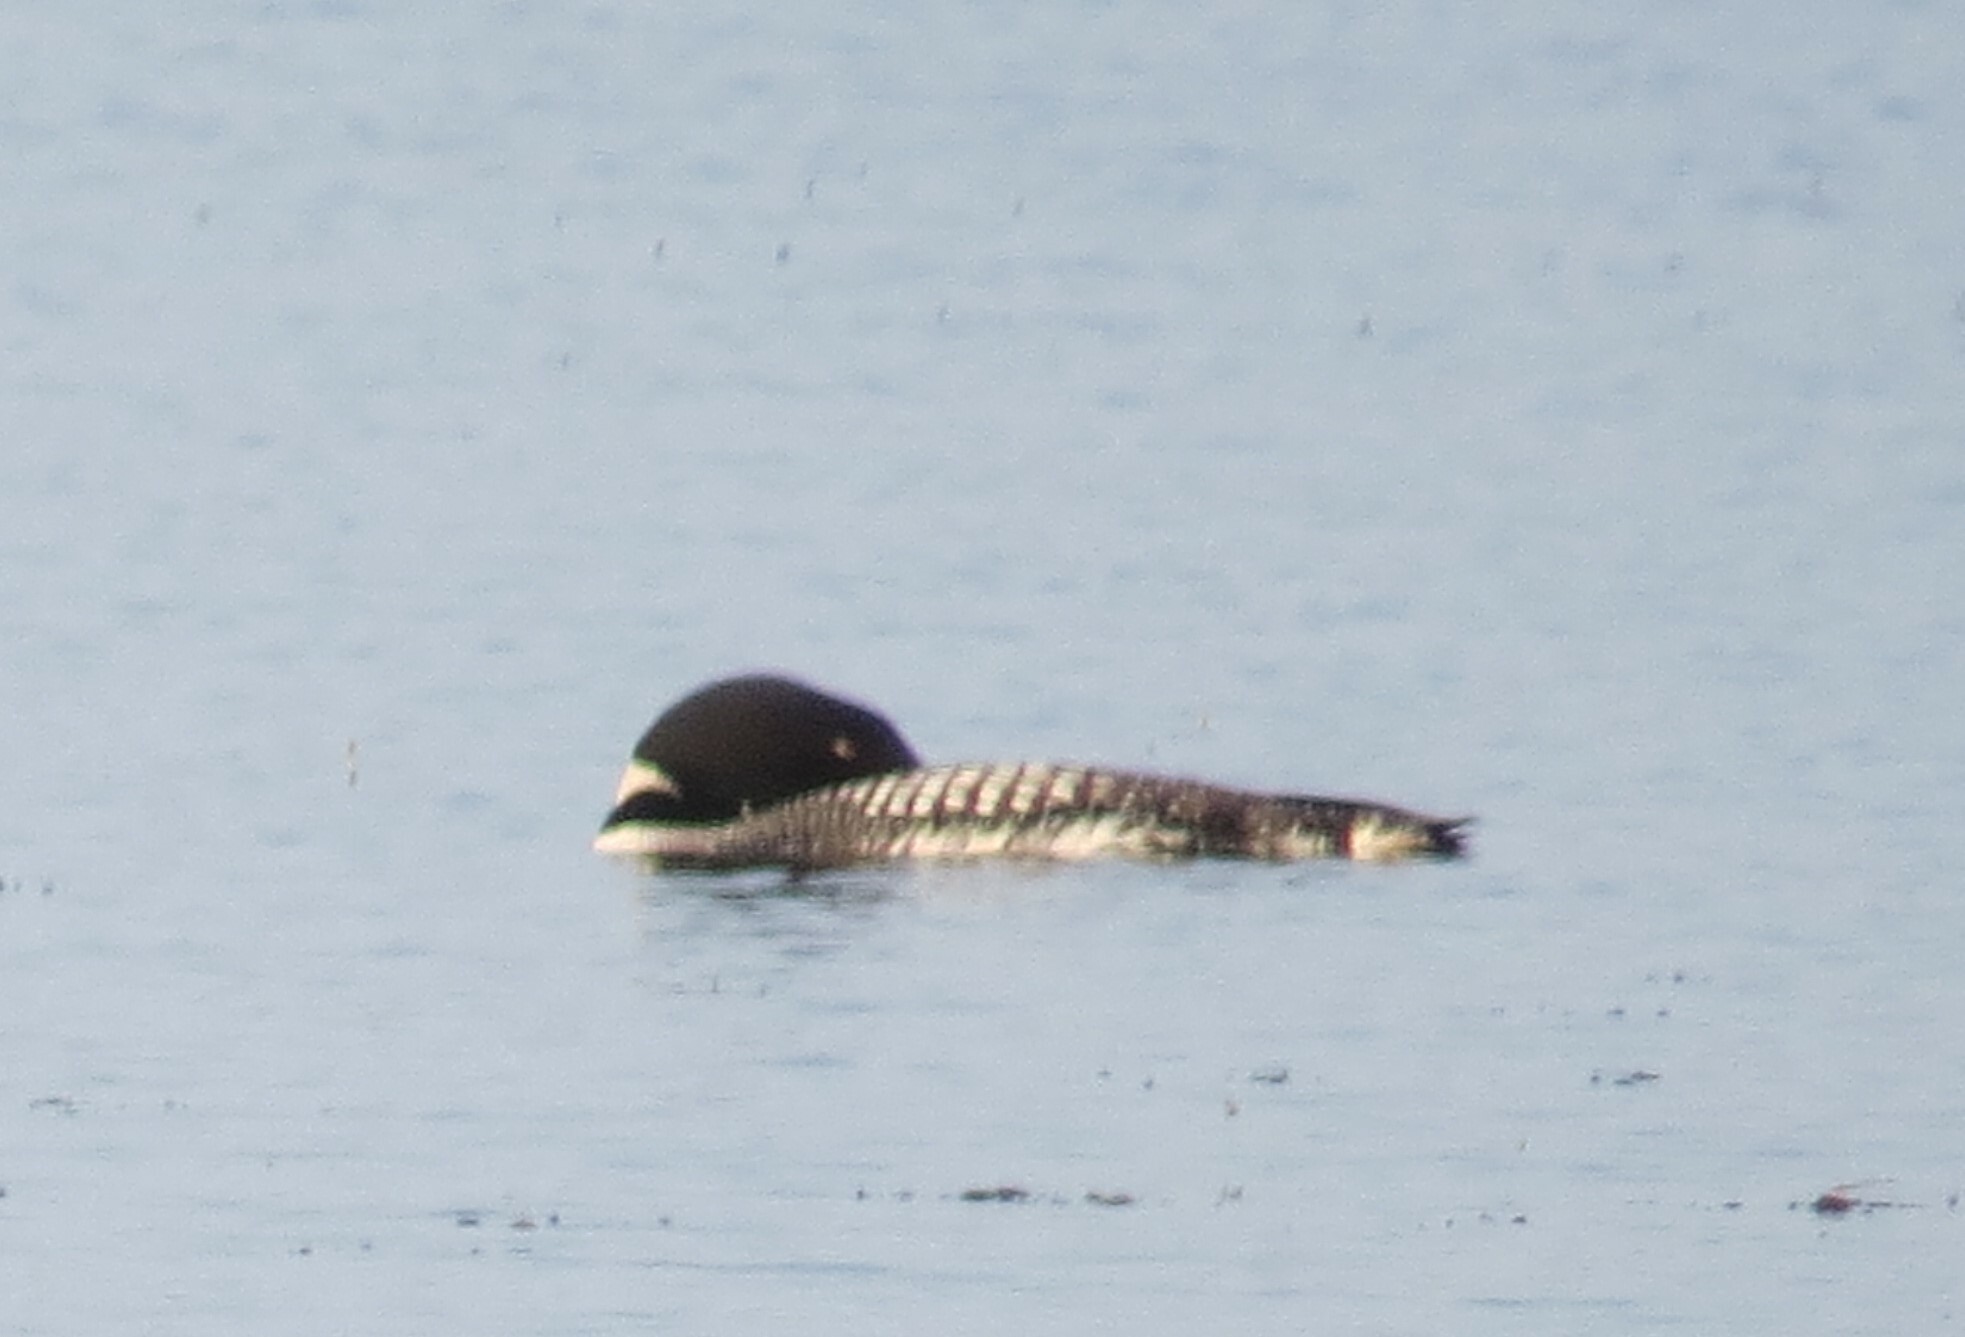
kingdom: Animalia
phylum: Chordata
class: Aves
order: Gaviiformes
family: Gaviidae
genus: Gavia
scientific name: Gavia immer
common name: Common loon
